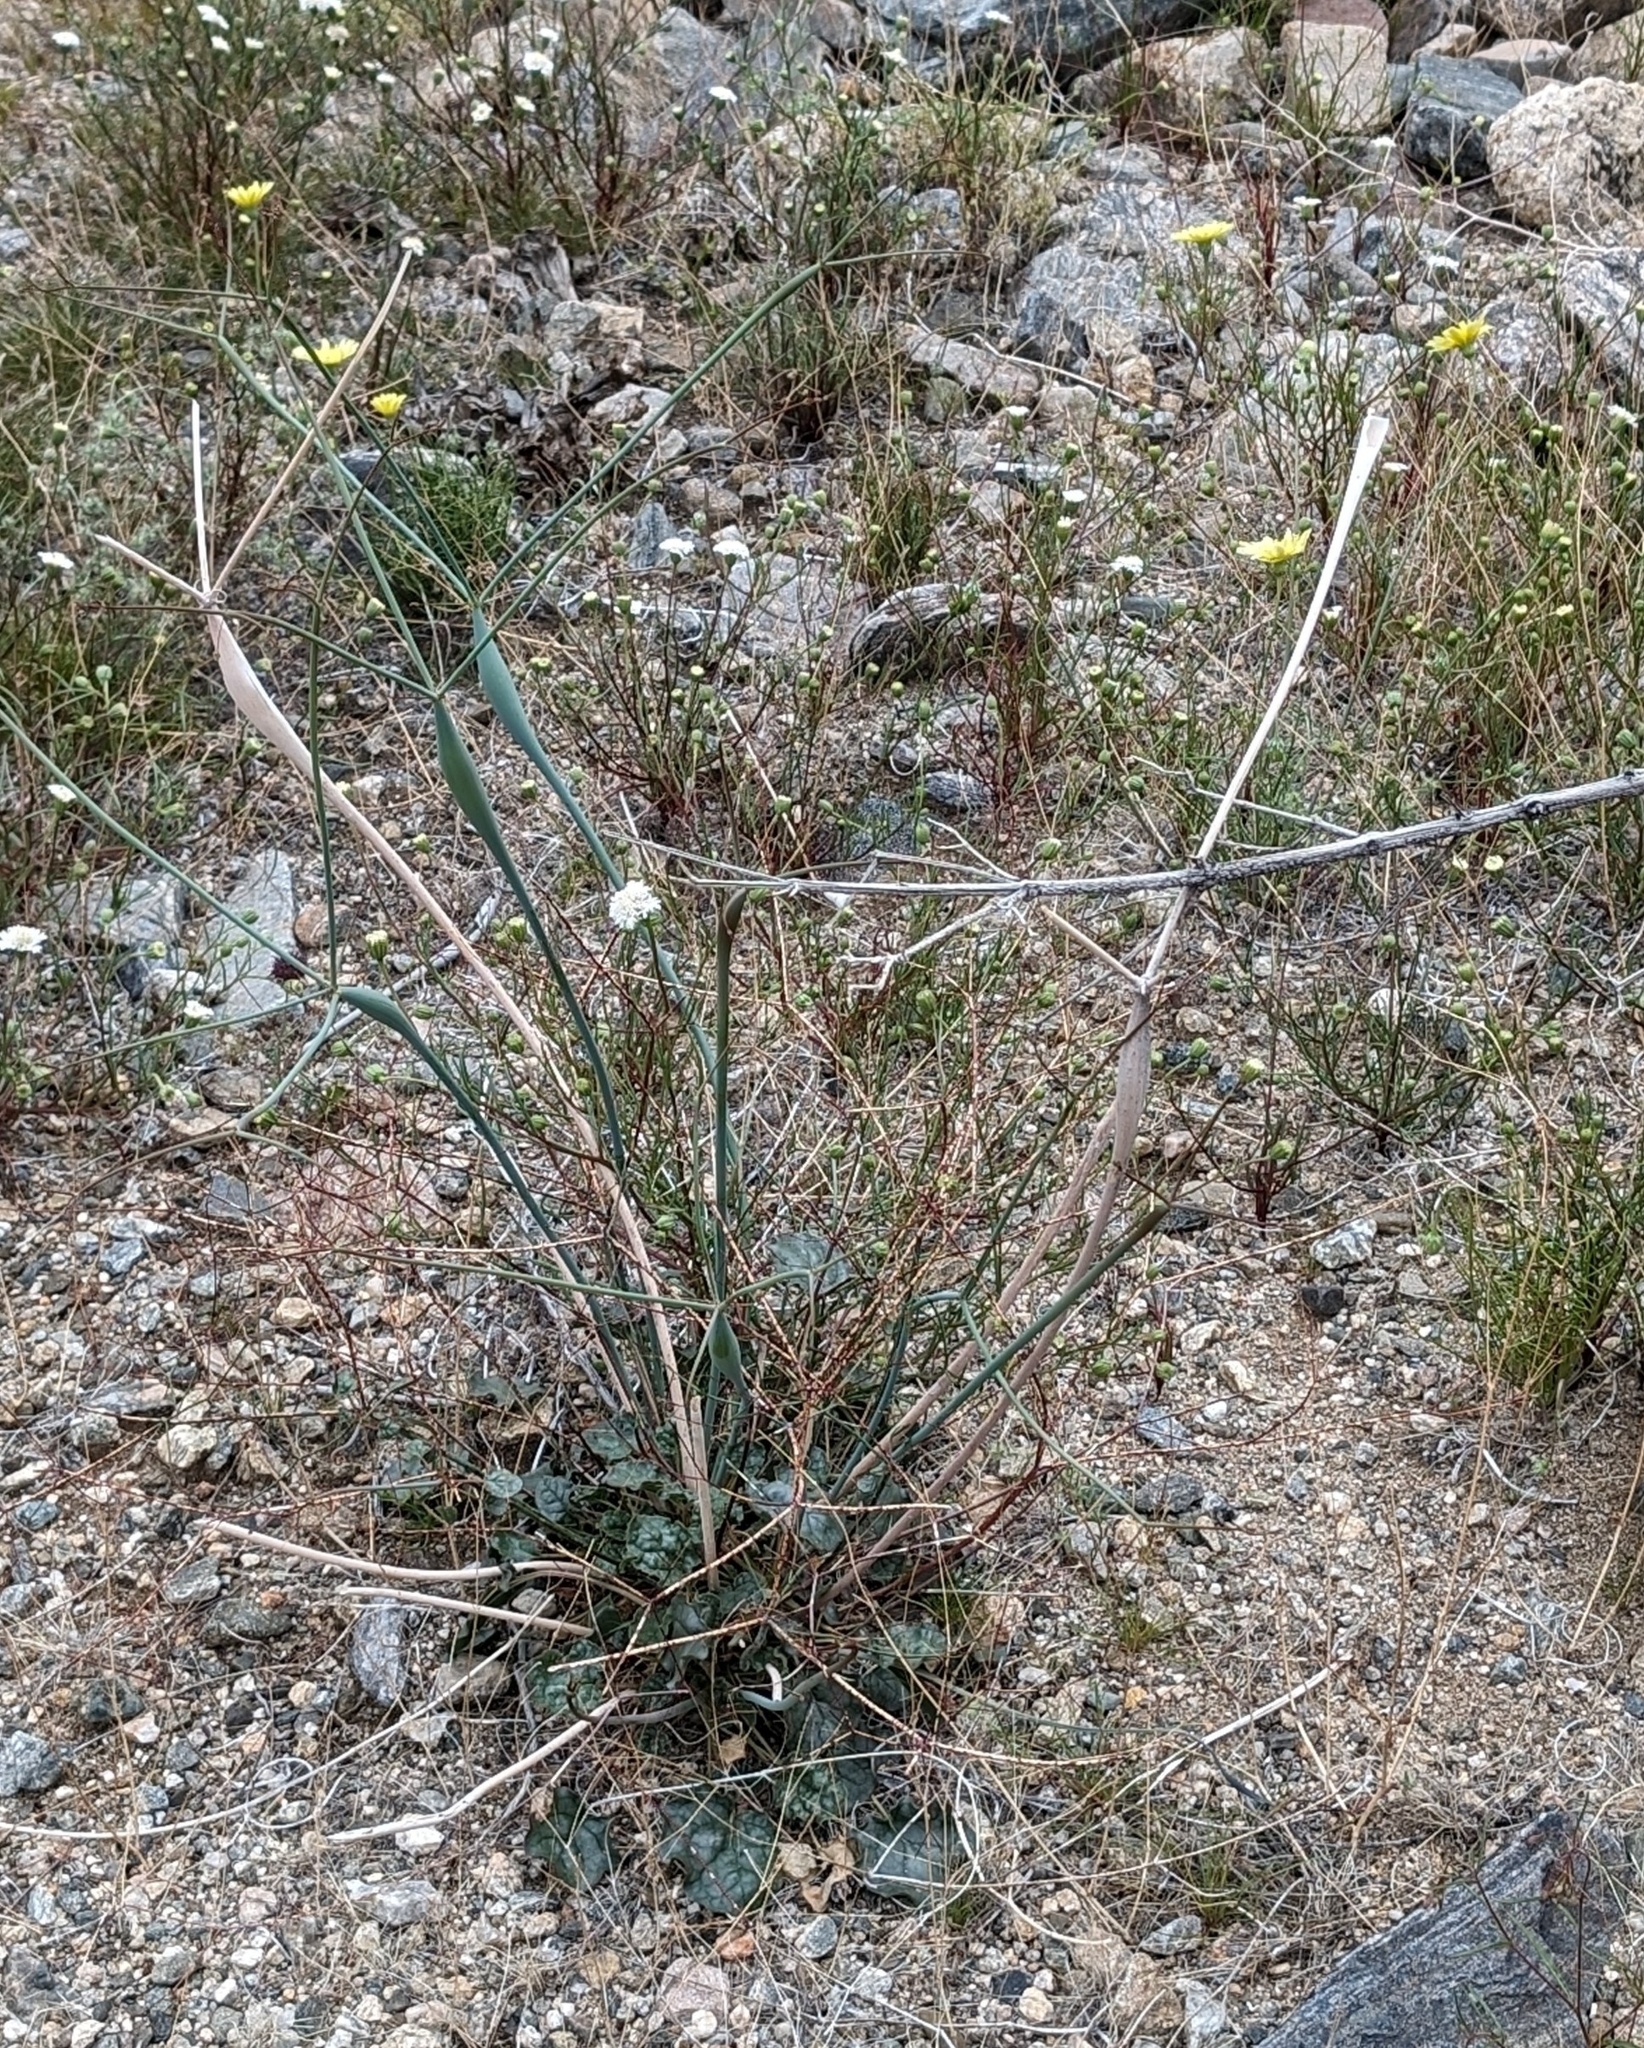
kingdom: Plantae
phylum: Tracheophyta
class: Magnoliopsida
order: Caryophyllales
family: Polygonaceae
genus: Eriogonum
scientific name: Eriogonum inflatum
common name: Desert trumpet
